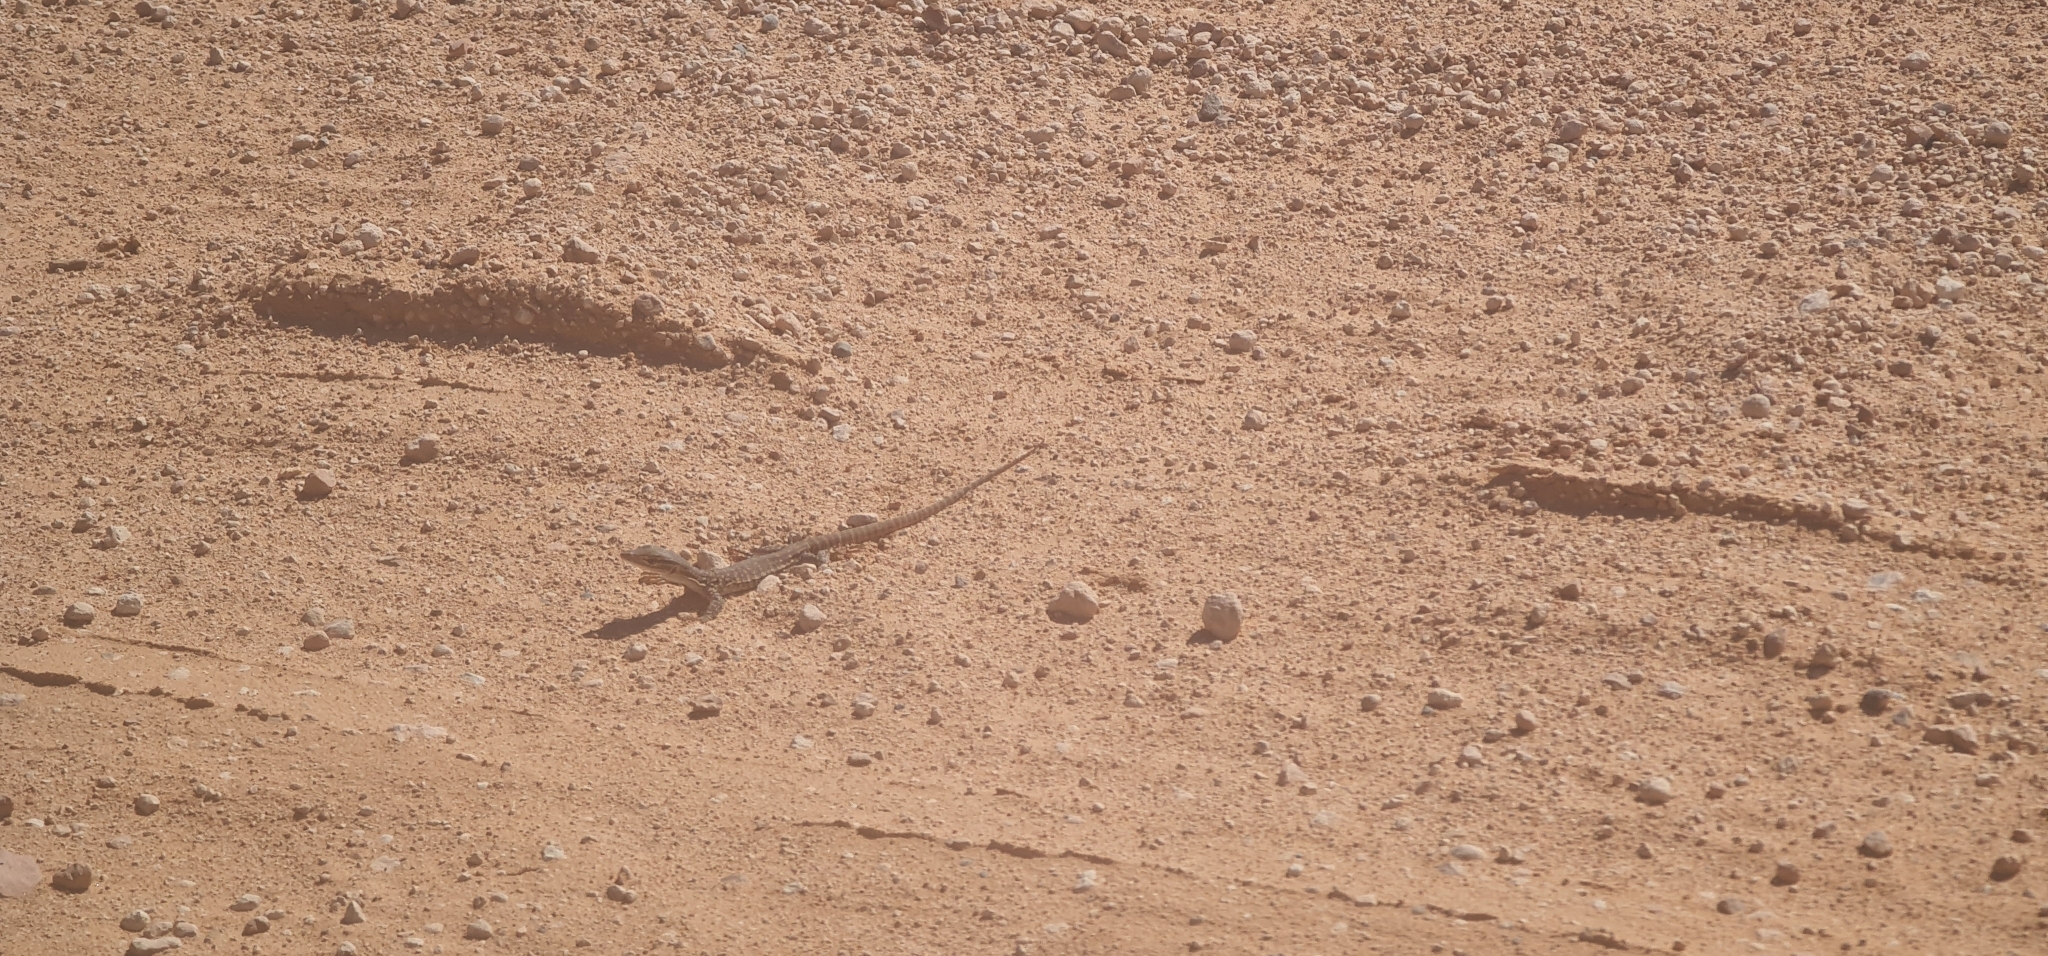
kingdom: Animalia
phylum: Chordata
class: Squamata
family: Varanidae
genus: Varanus
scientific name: Varanus gouldii
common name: Gould's goanna
